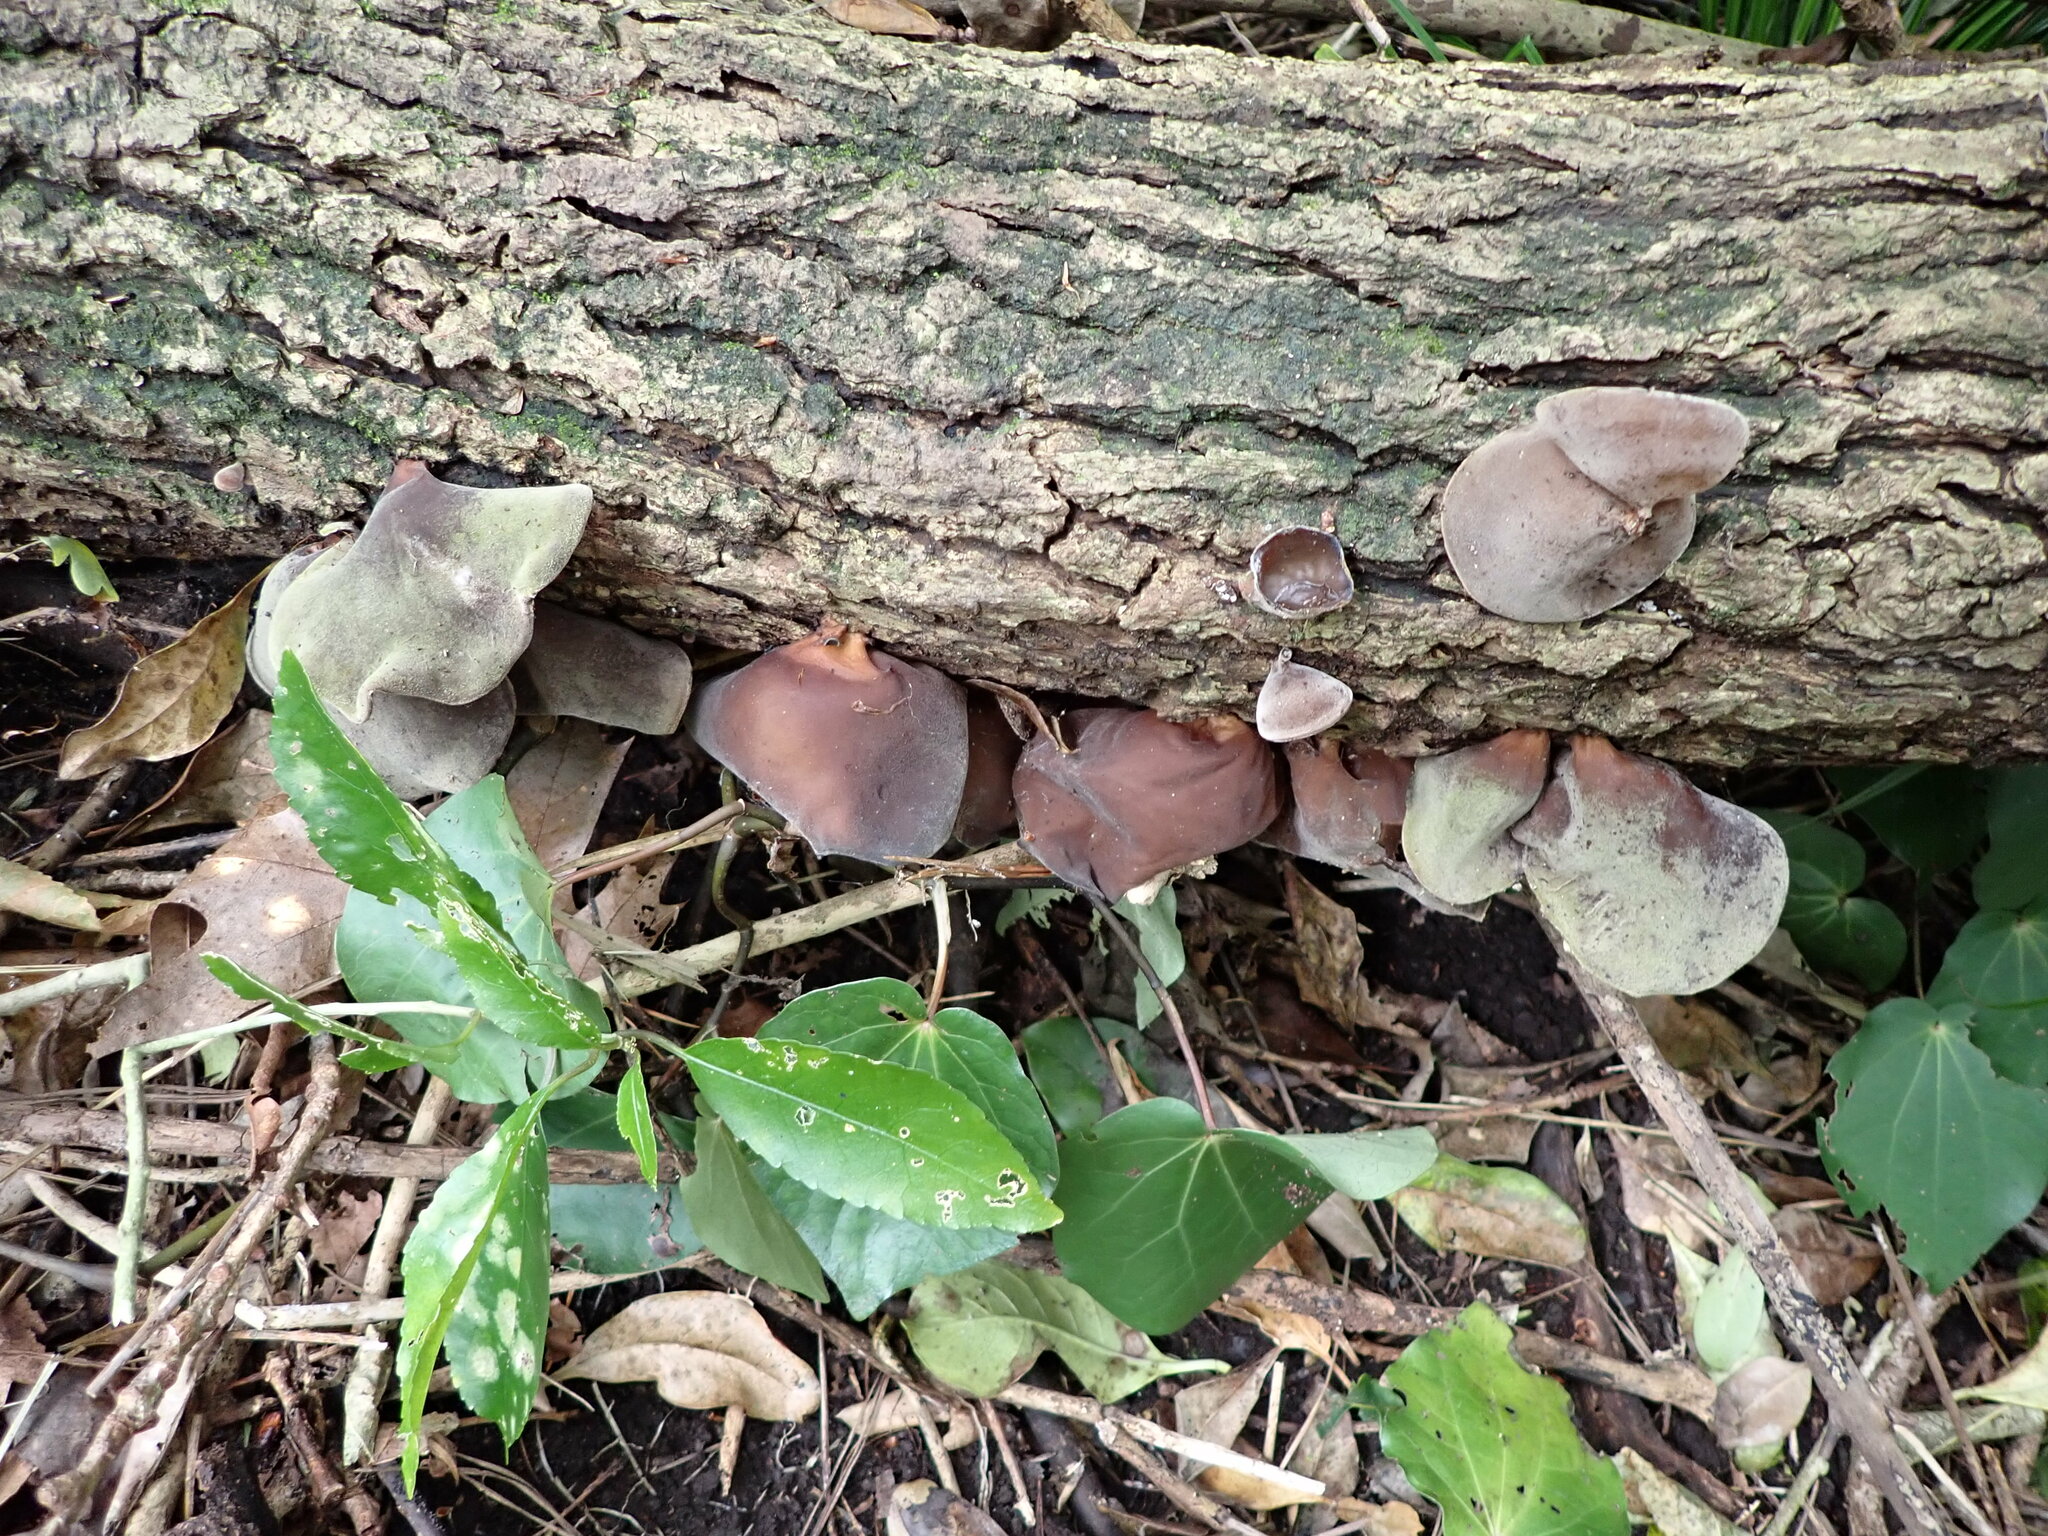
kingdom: Fungi
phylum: Basidiomycota
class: Agaricomycetes
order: Auriculariales
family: Auriculariaceae
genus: Auricularia
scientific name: Auricularia cornea
